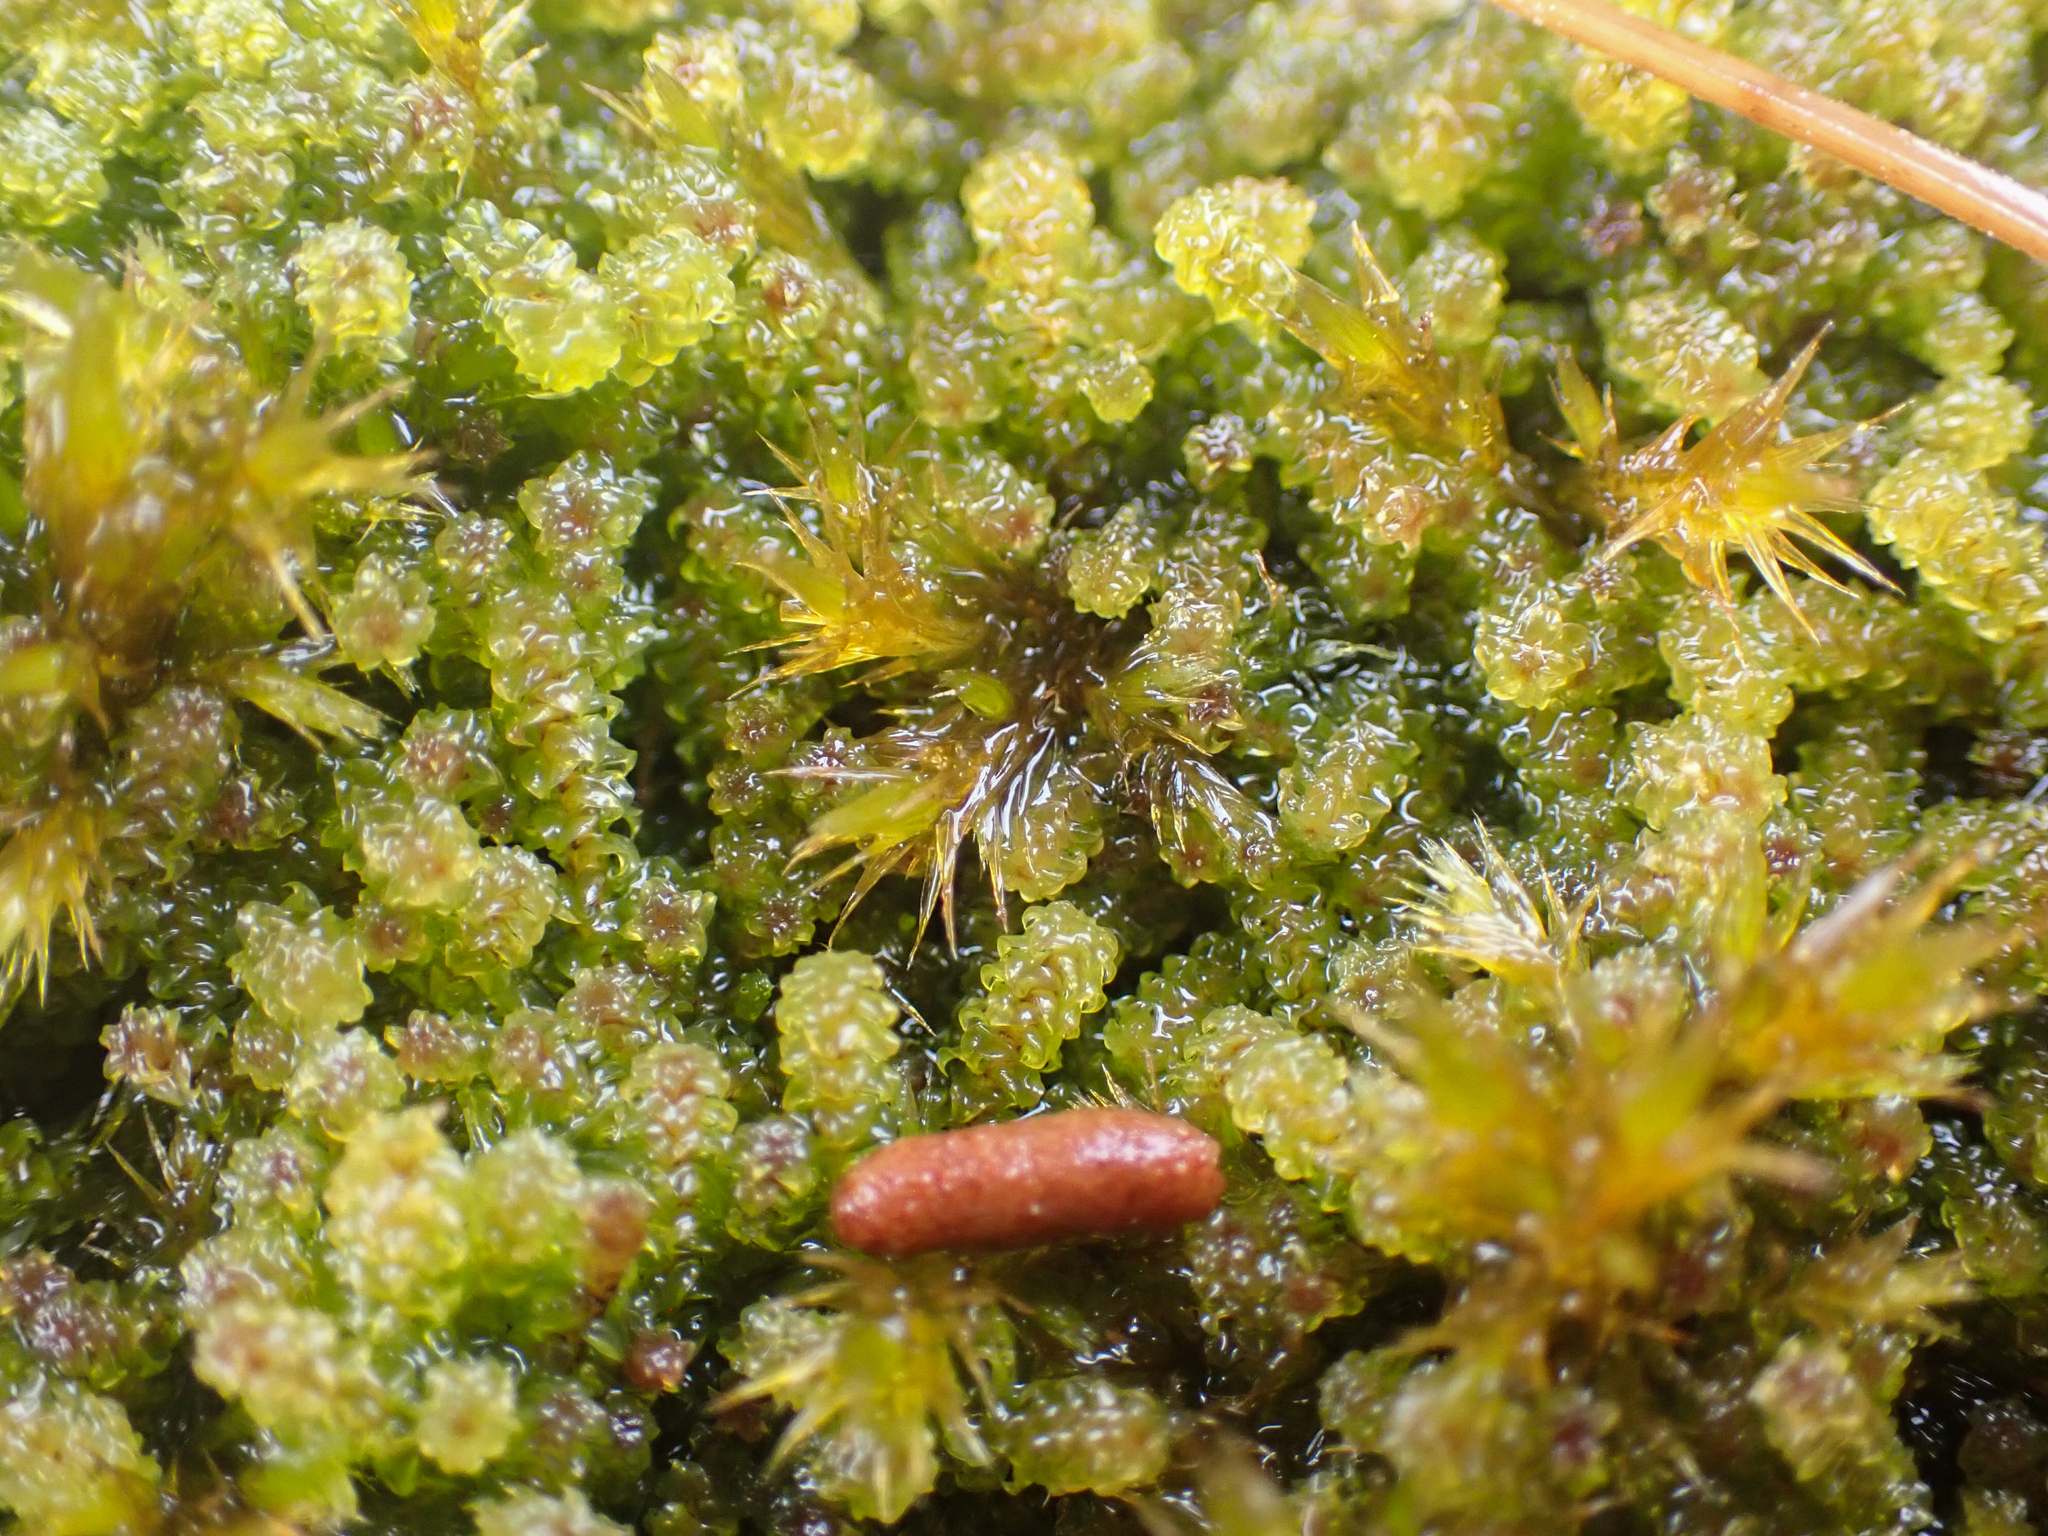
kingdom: Plantae
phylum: Bryophyta
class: Bryopsida
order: Splachnales
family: Meesiaceae
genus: Paludella
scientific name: Paludella squarrosa
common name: Tufted fen moss
